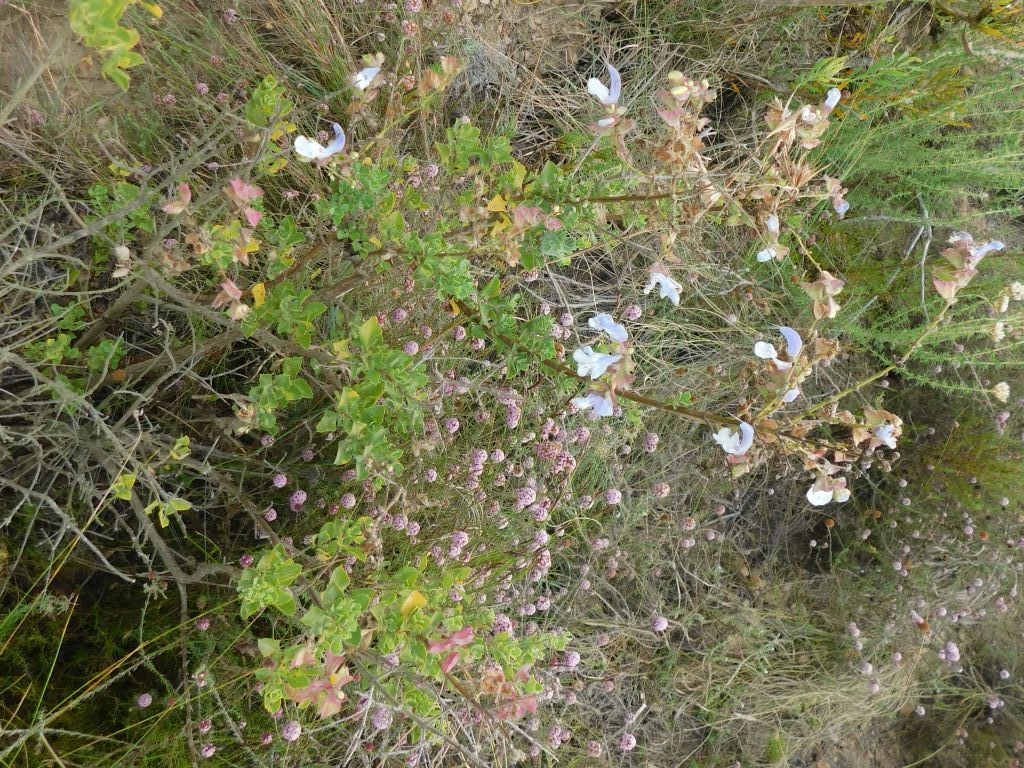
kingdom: Plantae
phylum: Tracheophyta
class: Magnoliopsida
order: Lamiales
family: Lamiaceae
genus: Salvia
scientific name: Salvia chamelaeagnea
